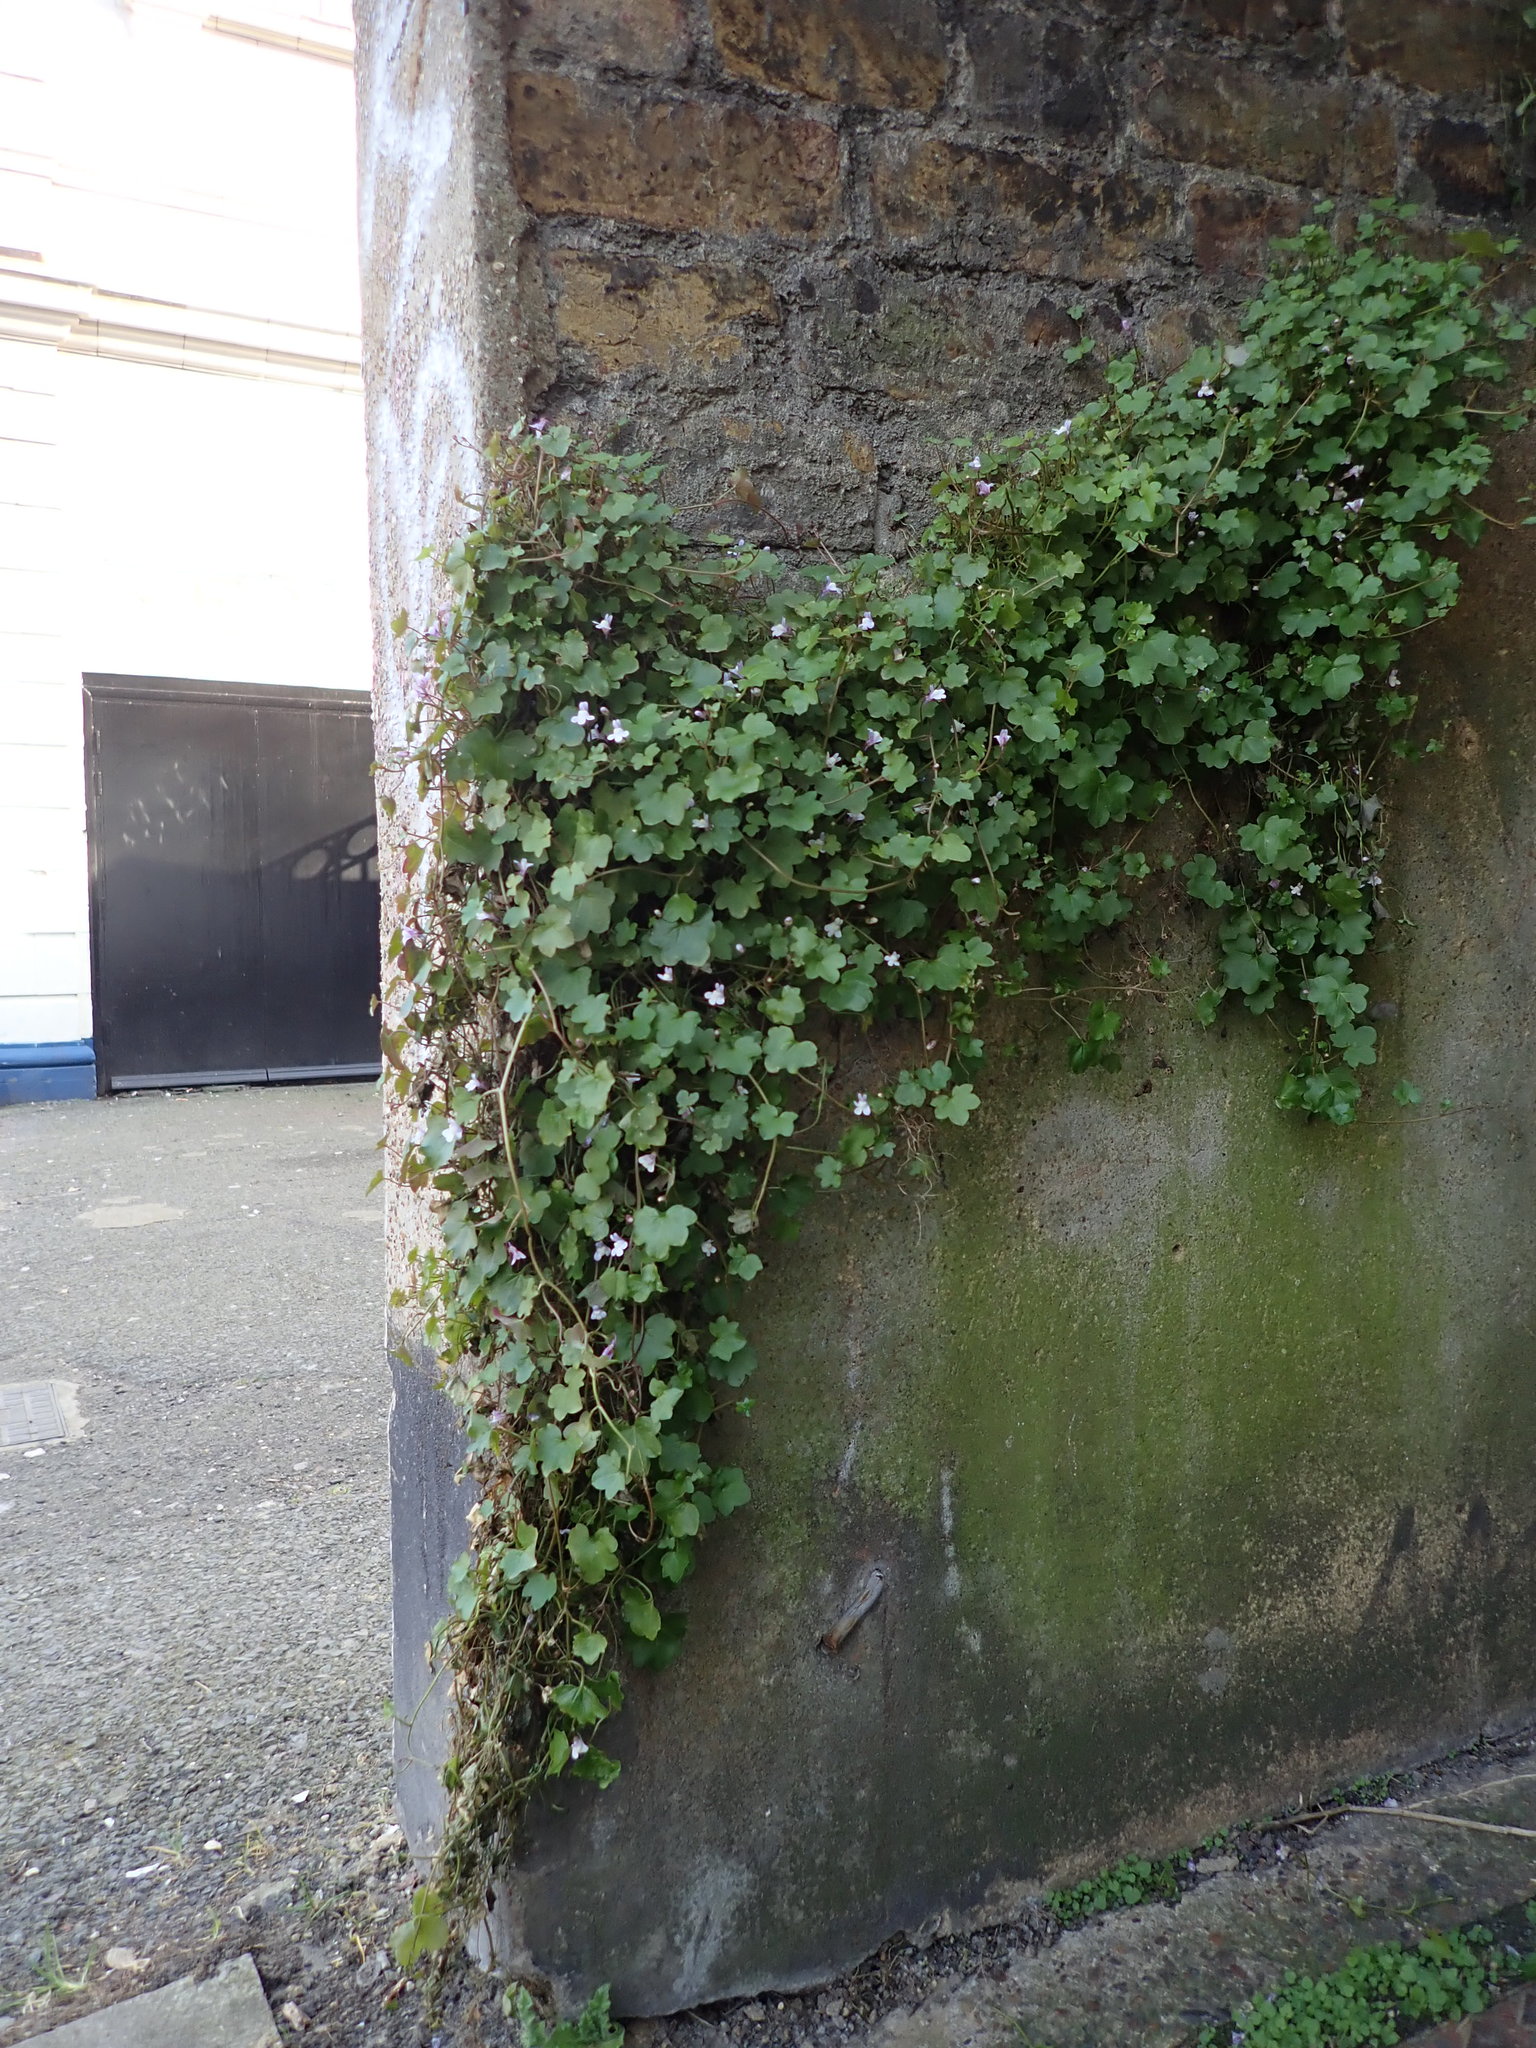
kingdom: Plantae
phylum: Tracheophyta
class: Magnoliopsida
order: Lamiales
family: Plantaginaceae
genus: Cymbalaria
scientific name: Cymbalaria muralis
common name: Ivy-leaved toadflax
